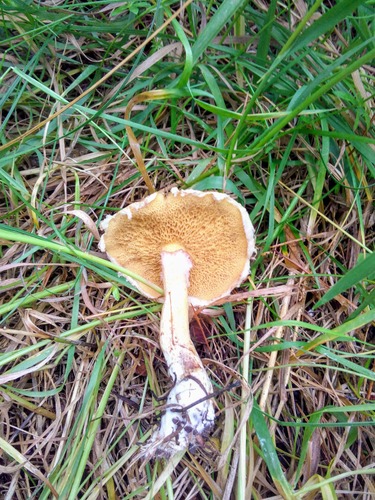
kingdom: Fungi
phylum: Basidiomycota
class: Agaricomycetes
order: Boletales
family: Suillaceae
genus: Suillus
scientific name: Suillus americanus
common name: Chicken fat mushroom
